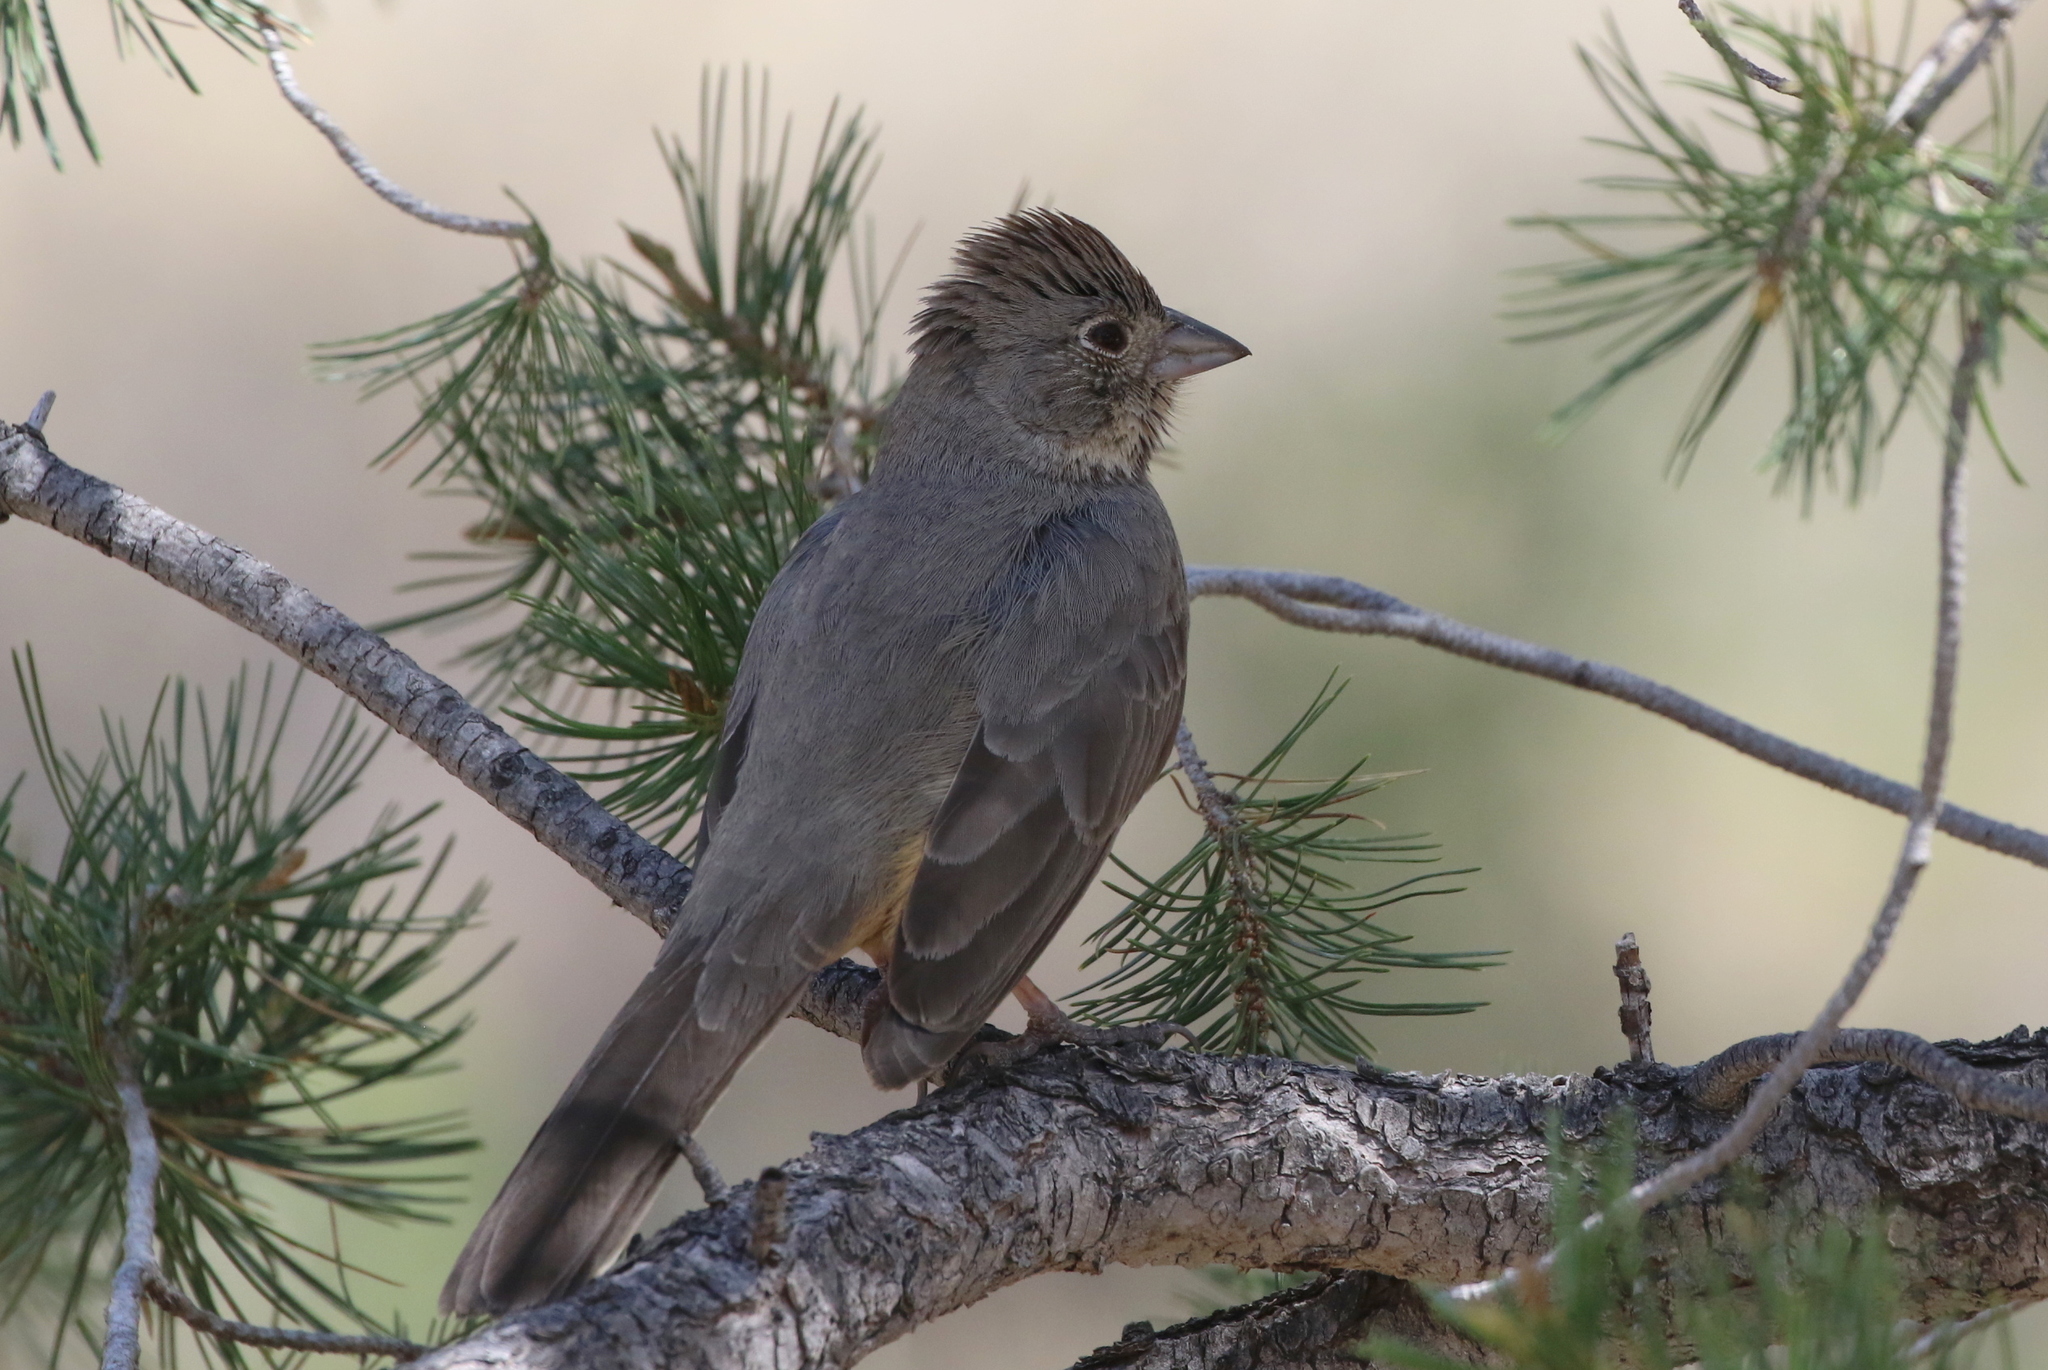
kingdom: Animalia
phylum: Chordata
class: Aves
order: Passeriformes
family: Passerellidae
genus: Melozone
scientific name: Melozone fusca
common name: Canyon towhee
